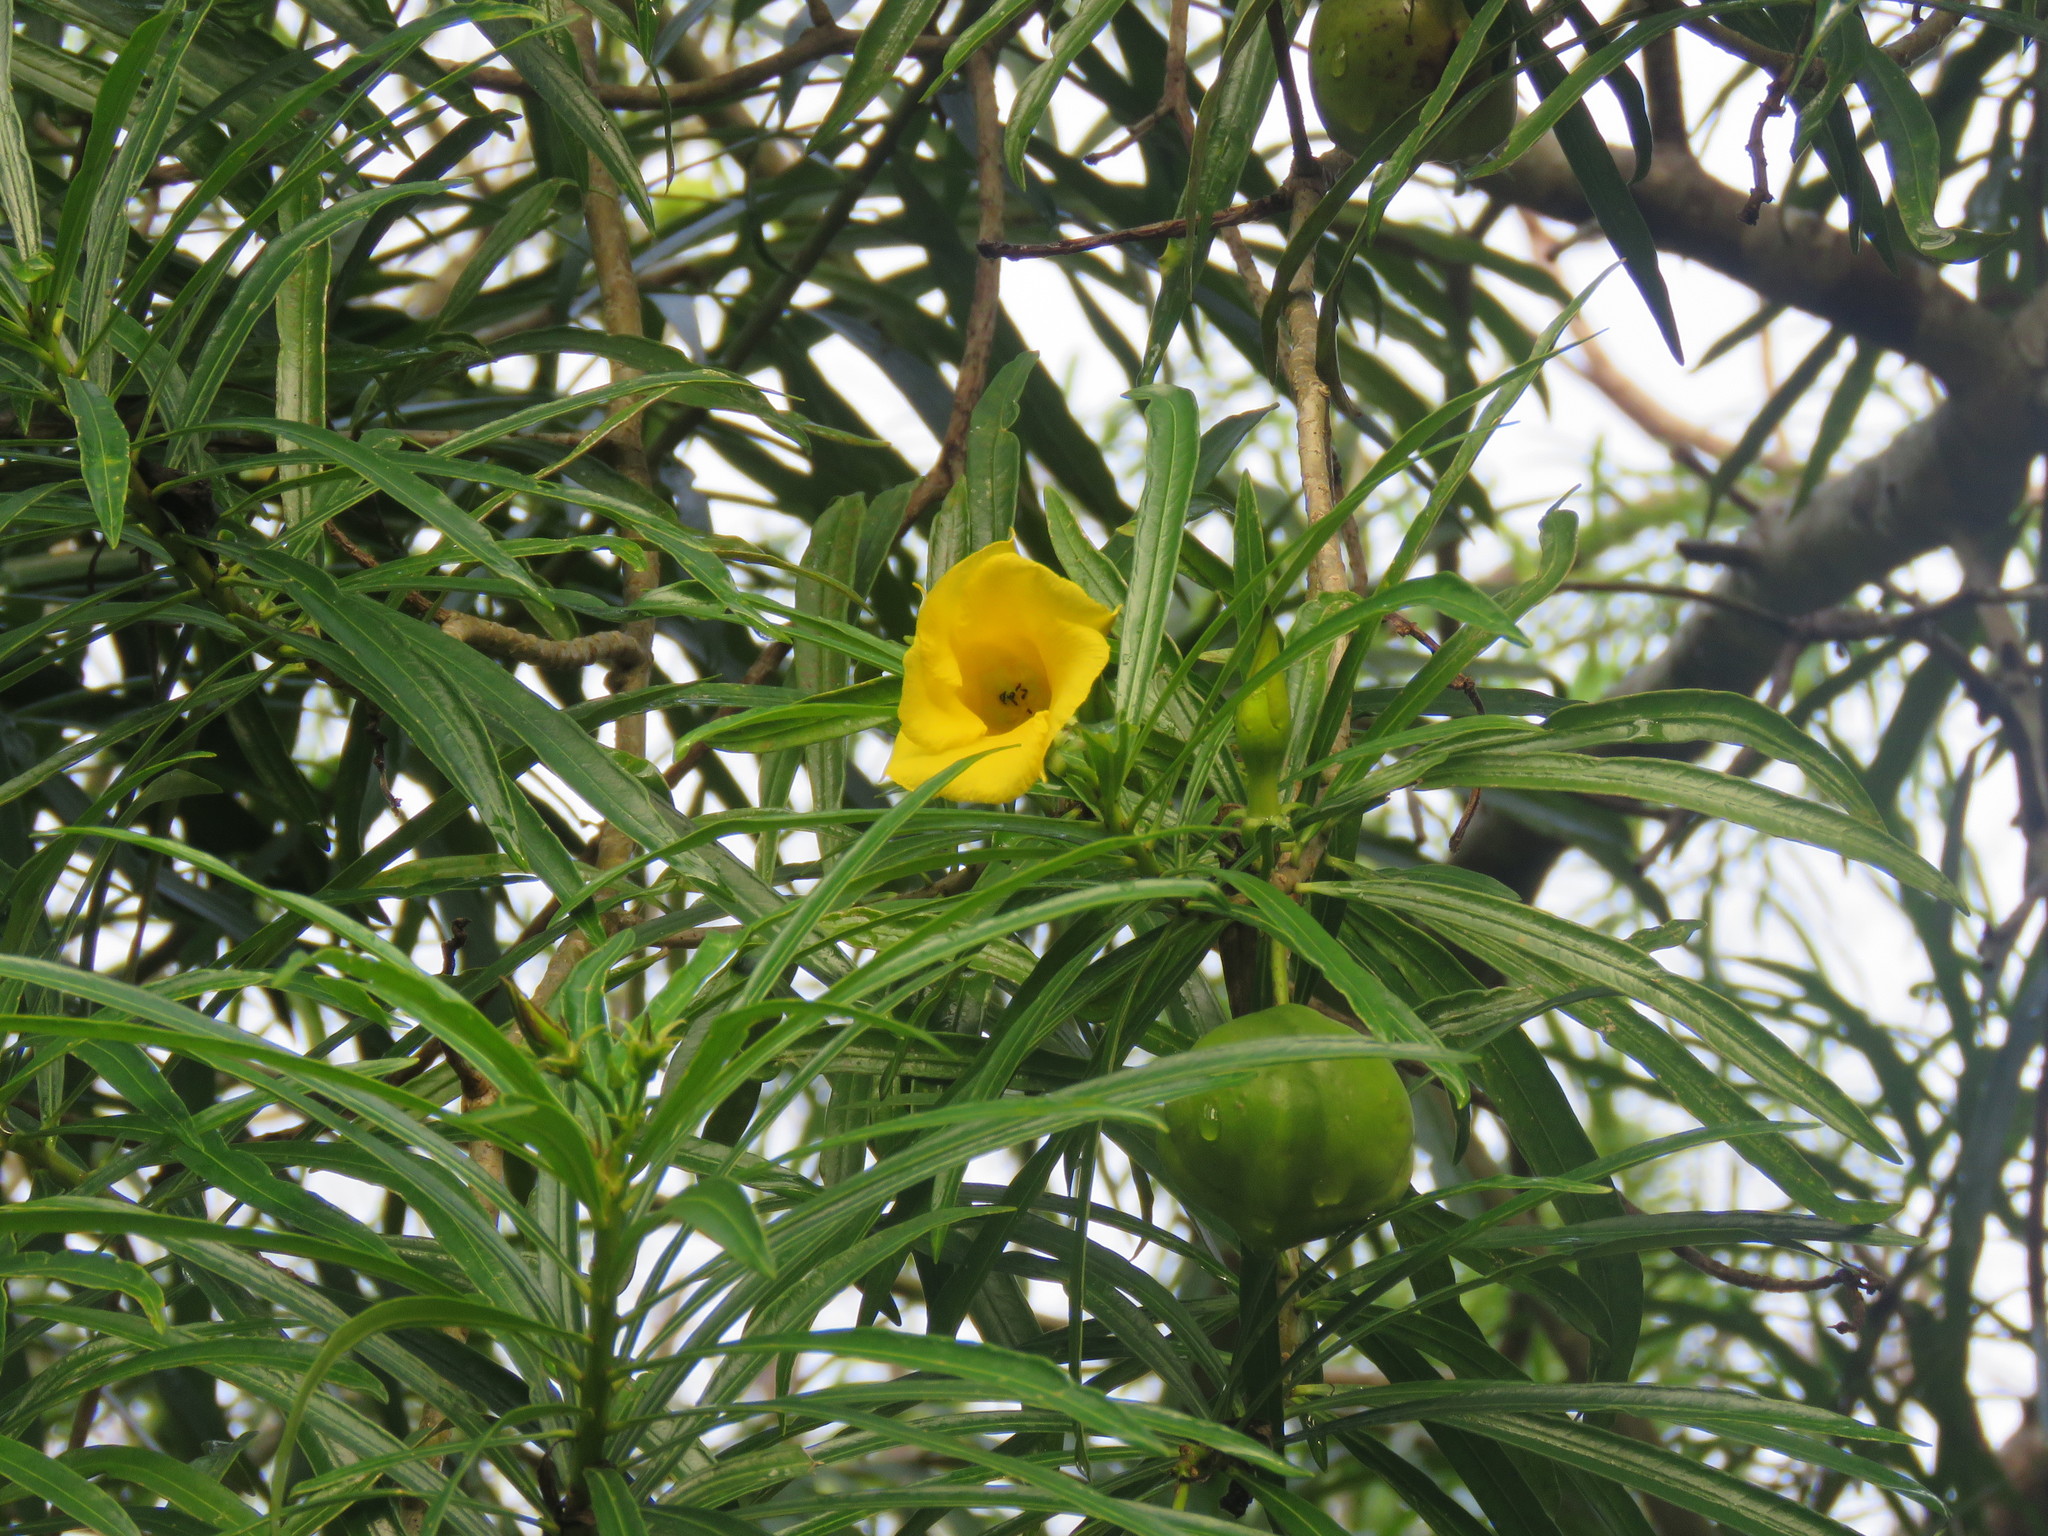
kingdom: Plantae
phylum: Tracheophyta
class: Magnoliopsida
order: Gentianales
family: Apocynaceae
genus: Cascabela
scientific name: Cascabela thevetia
